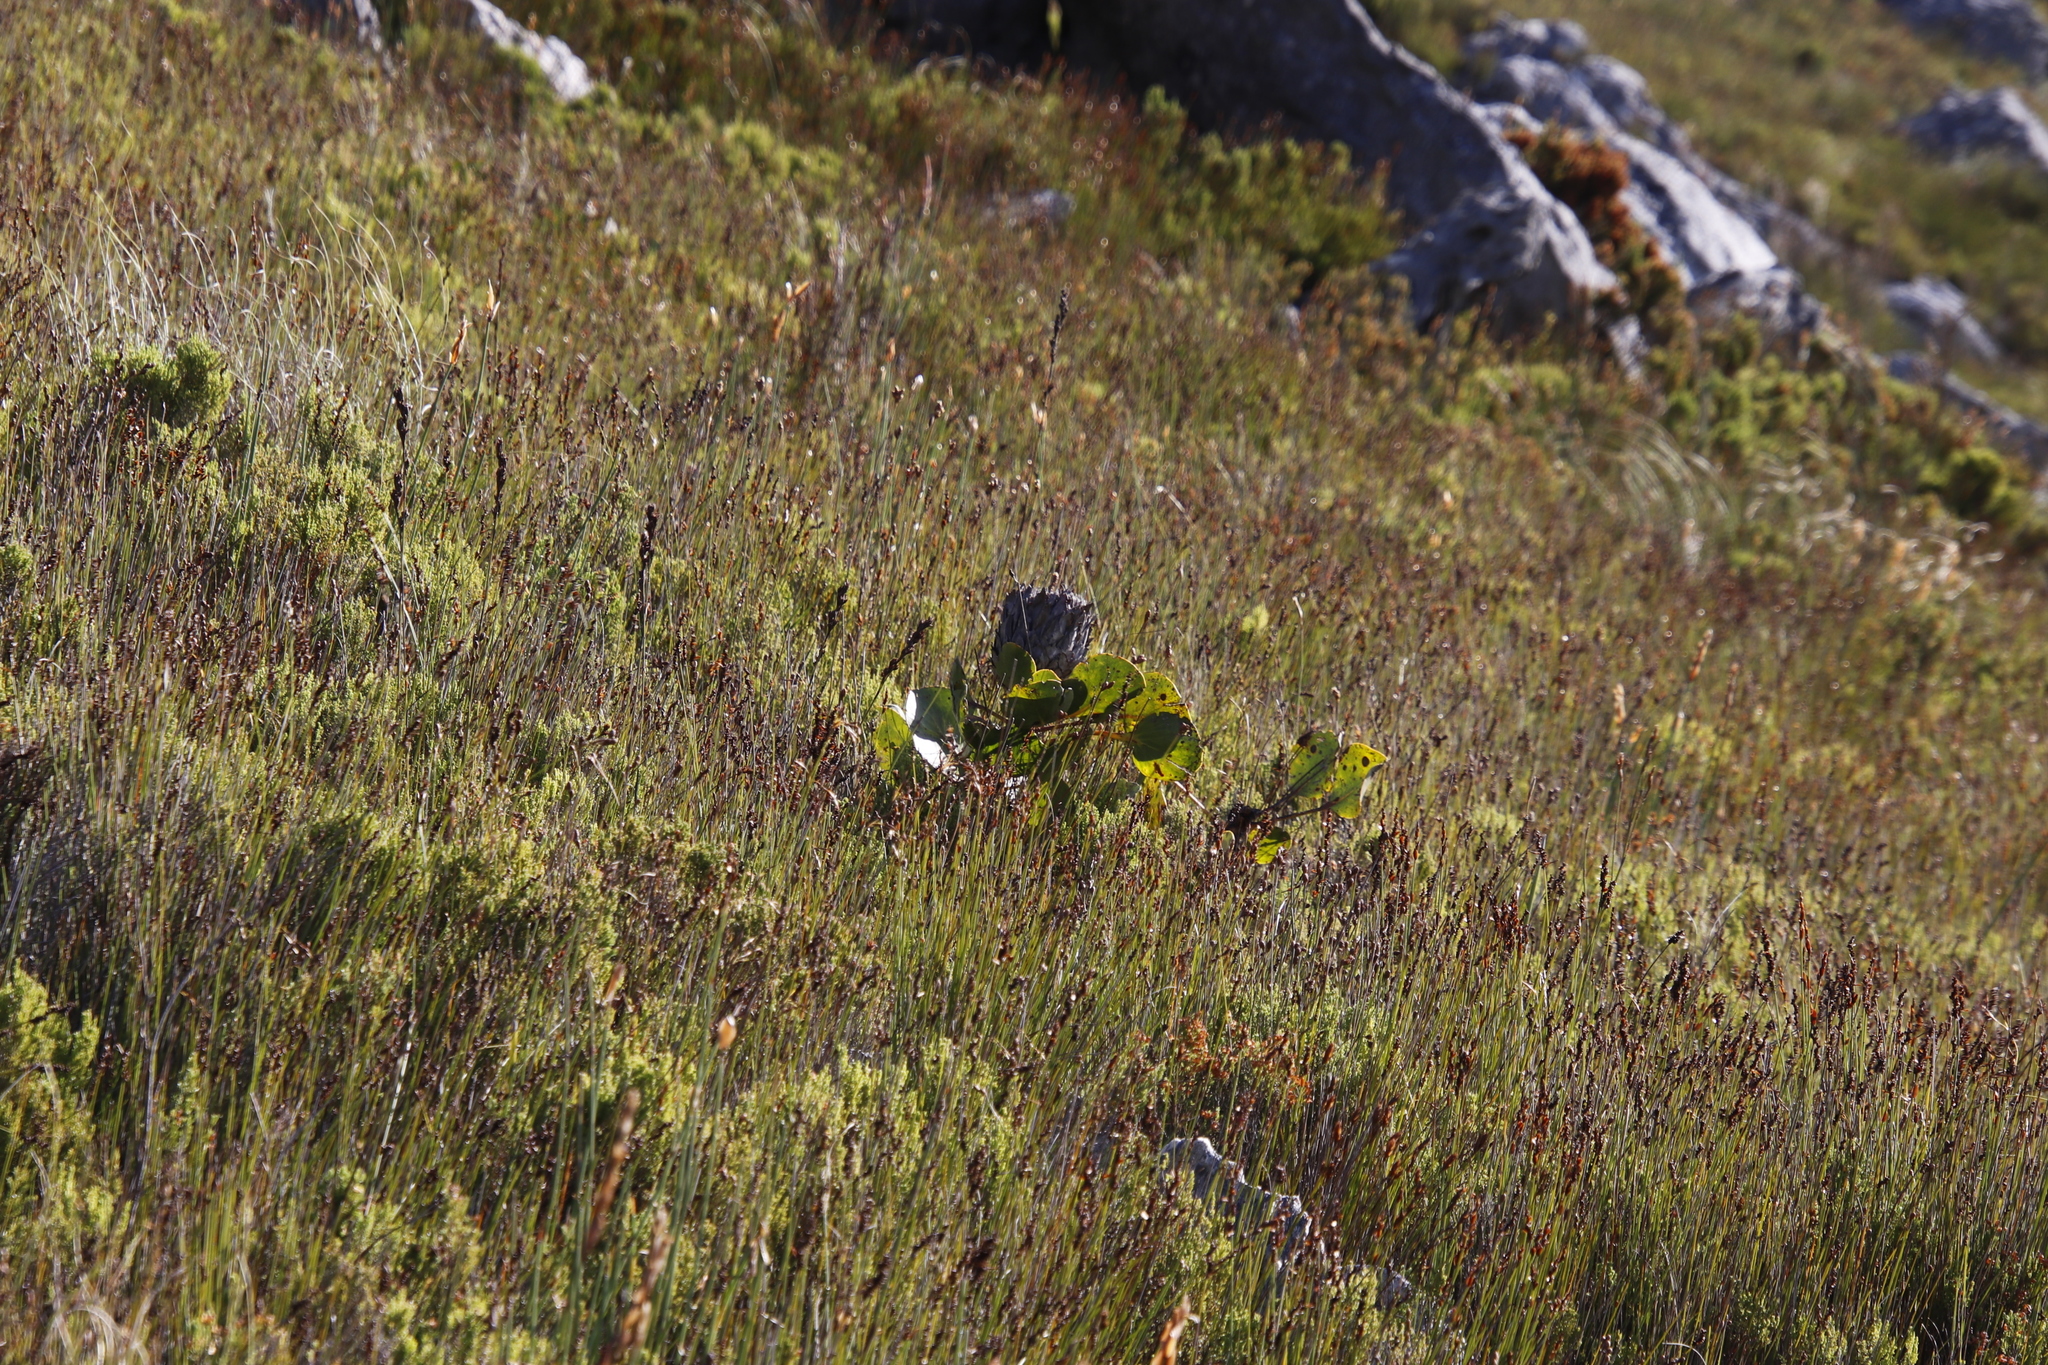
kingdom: Plantae
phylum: Tracheophyta
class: Magnoliopsida
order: Proteales
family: Proteaceae
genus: Protea
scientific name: Protea cynaroides
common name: King protea
